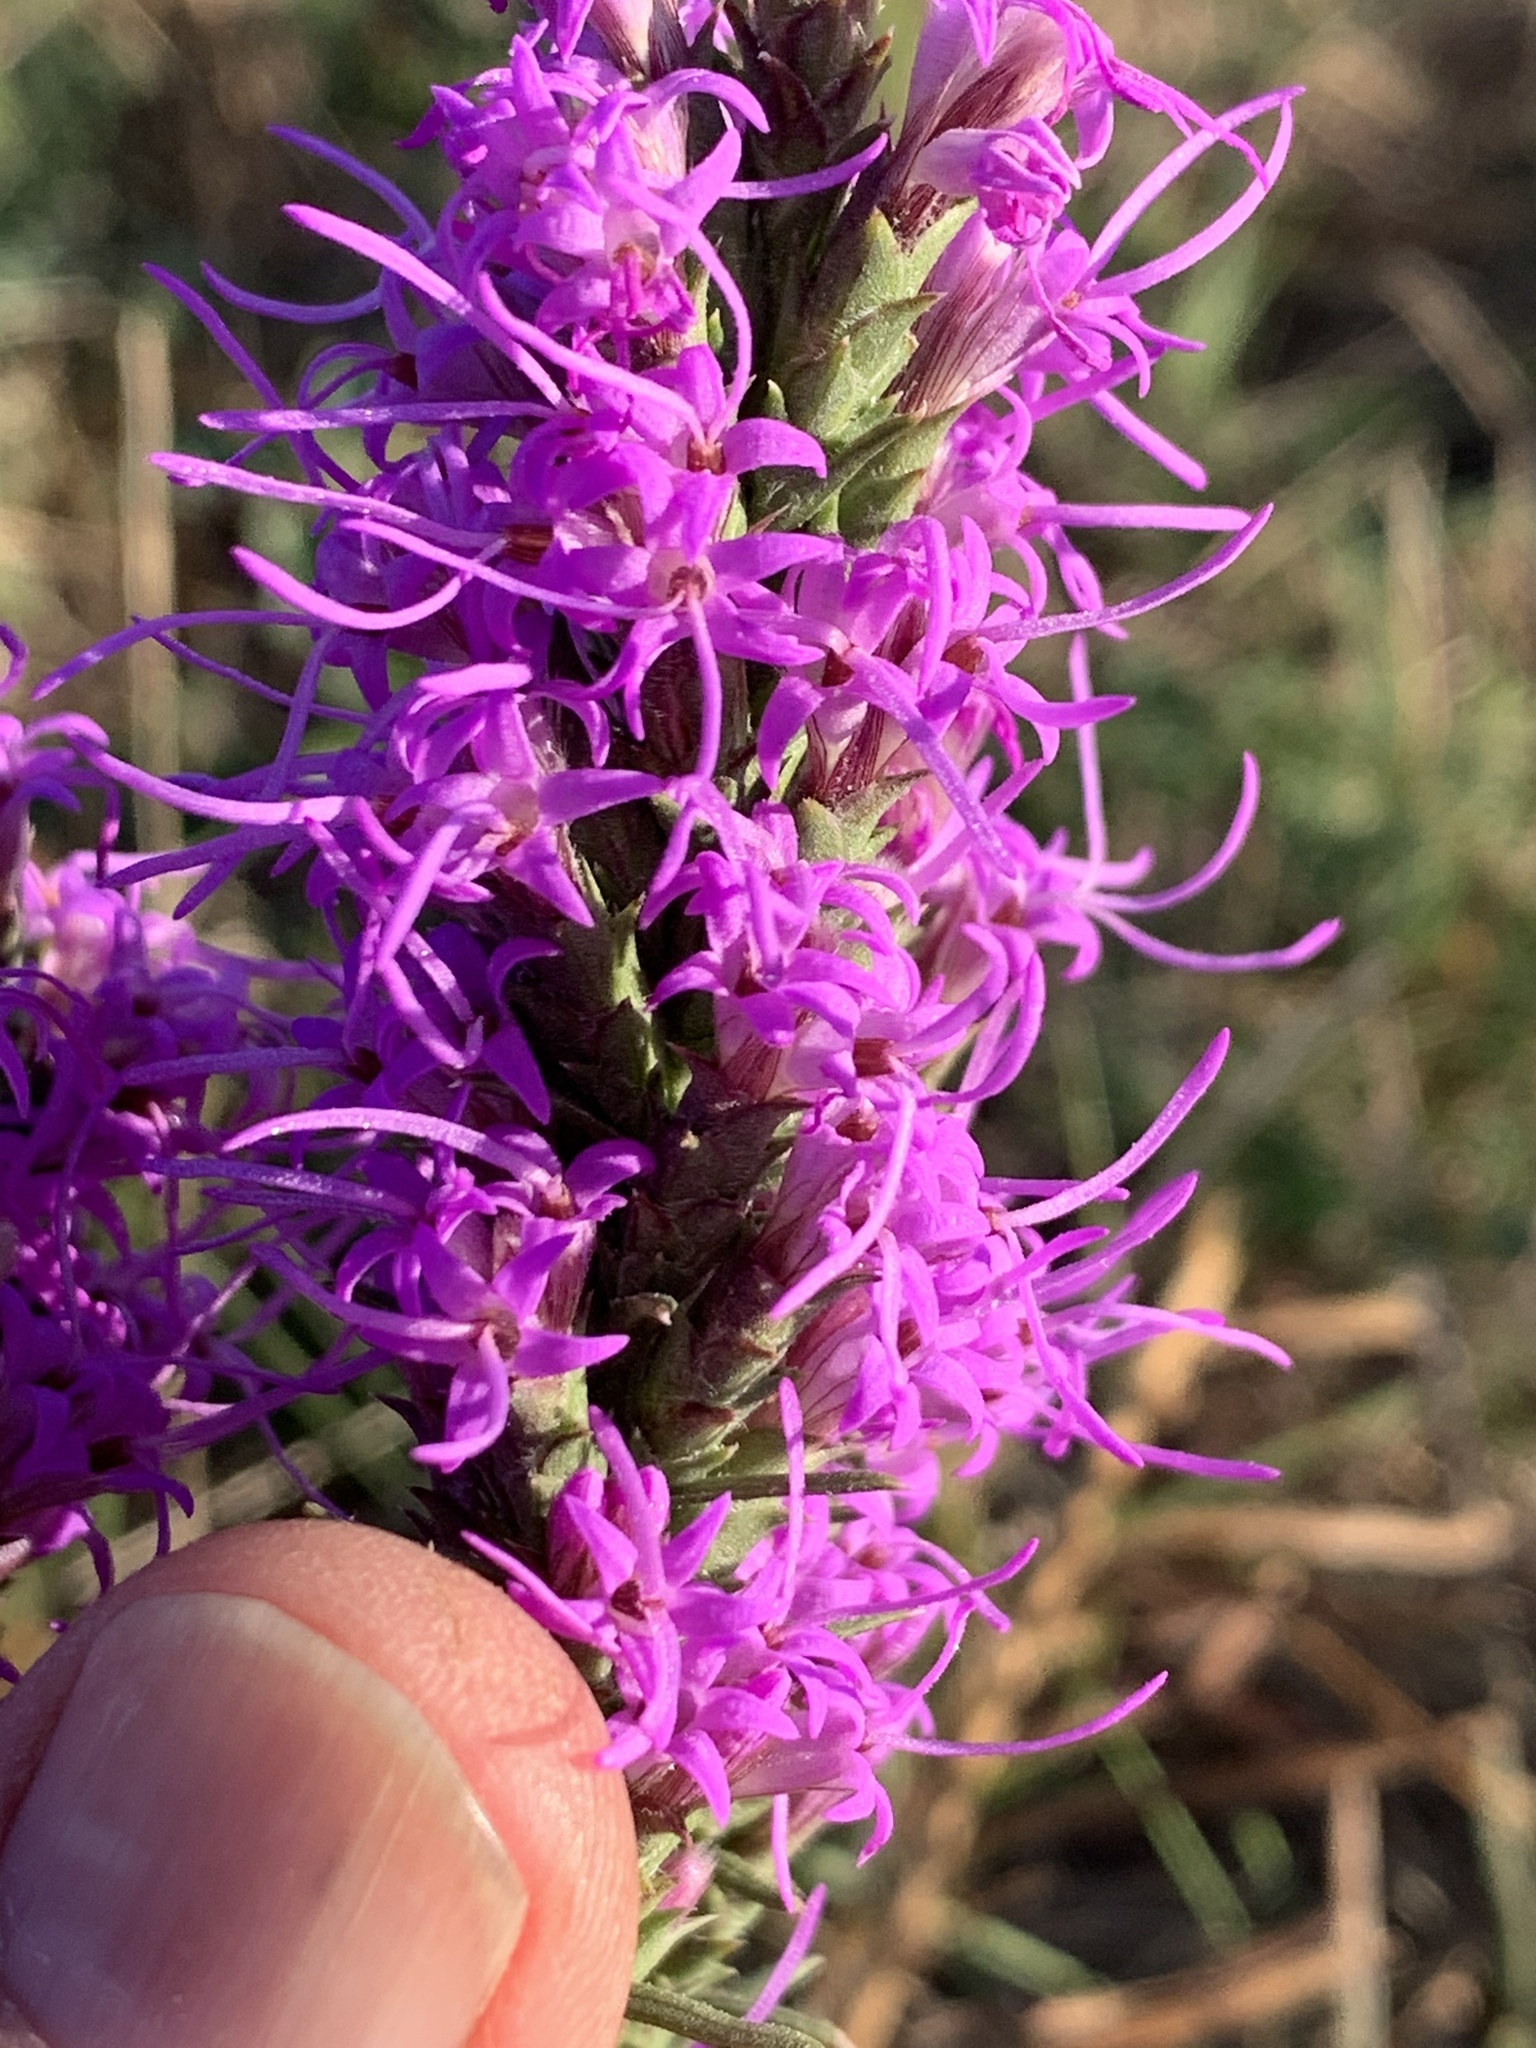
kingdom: Plantae
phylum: Tracheophyta
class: Magnoliopsida
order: Asterales
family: Asteraceae
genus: Liatris
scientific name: Liatris punctata
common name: Dotted gayfeather
